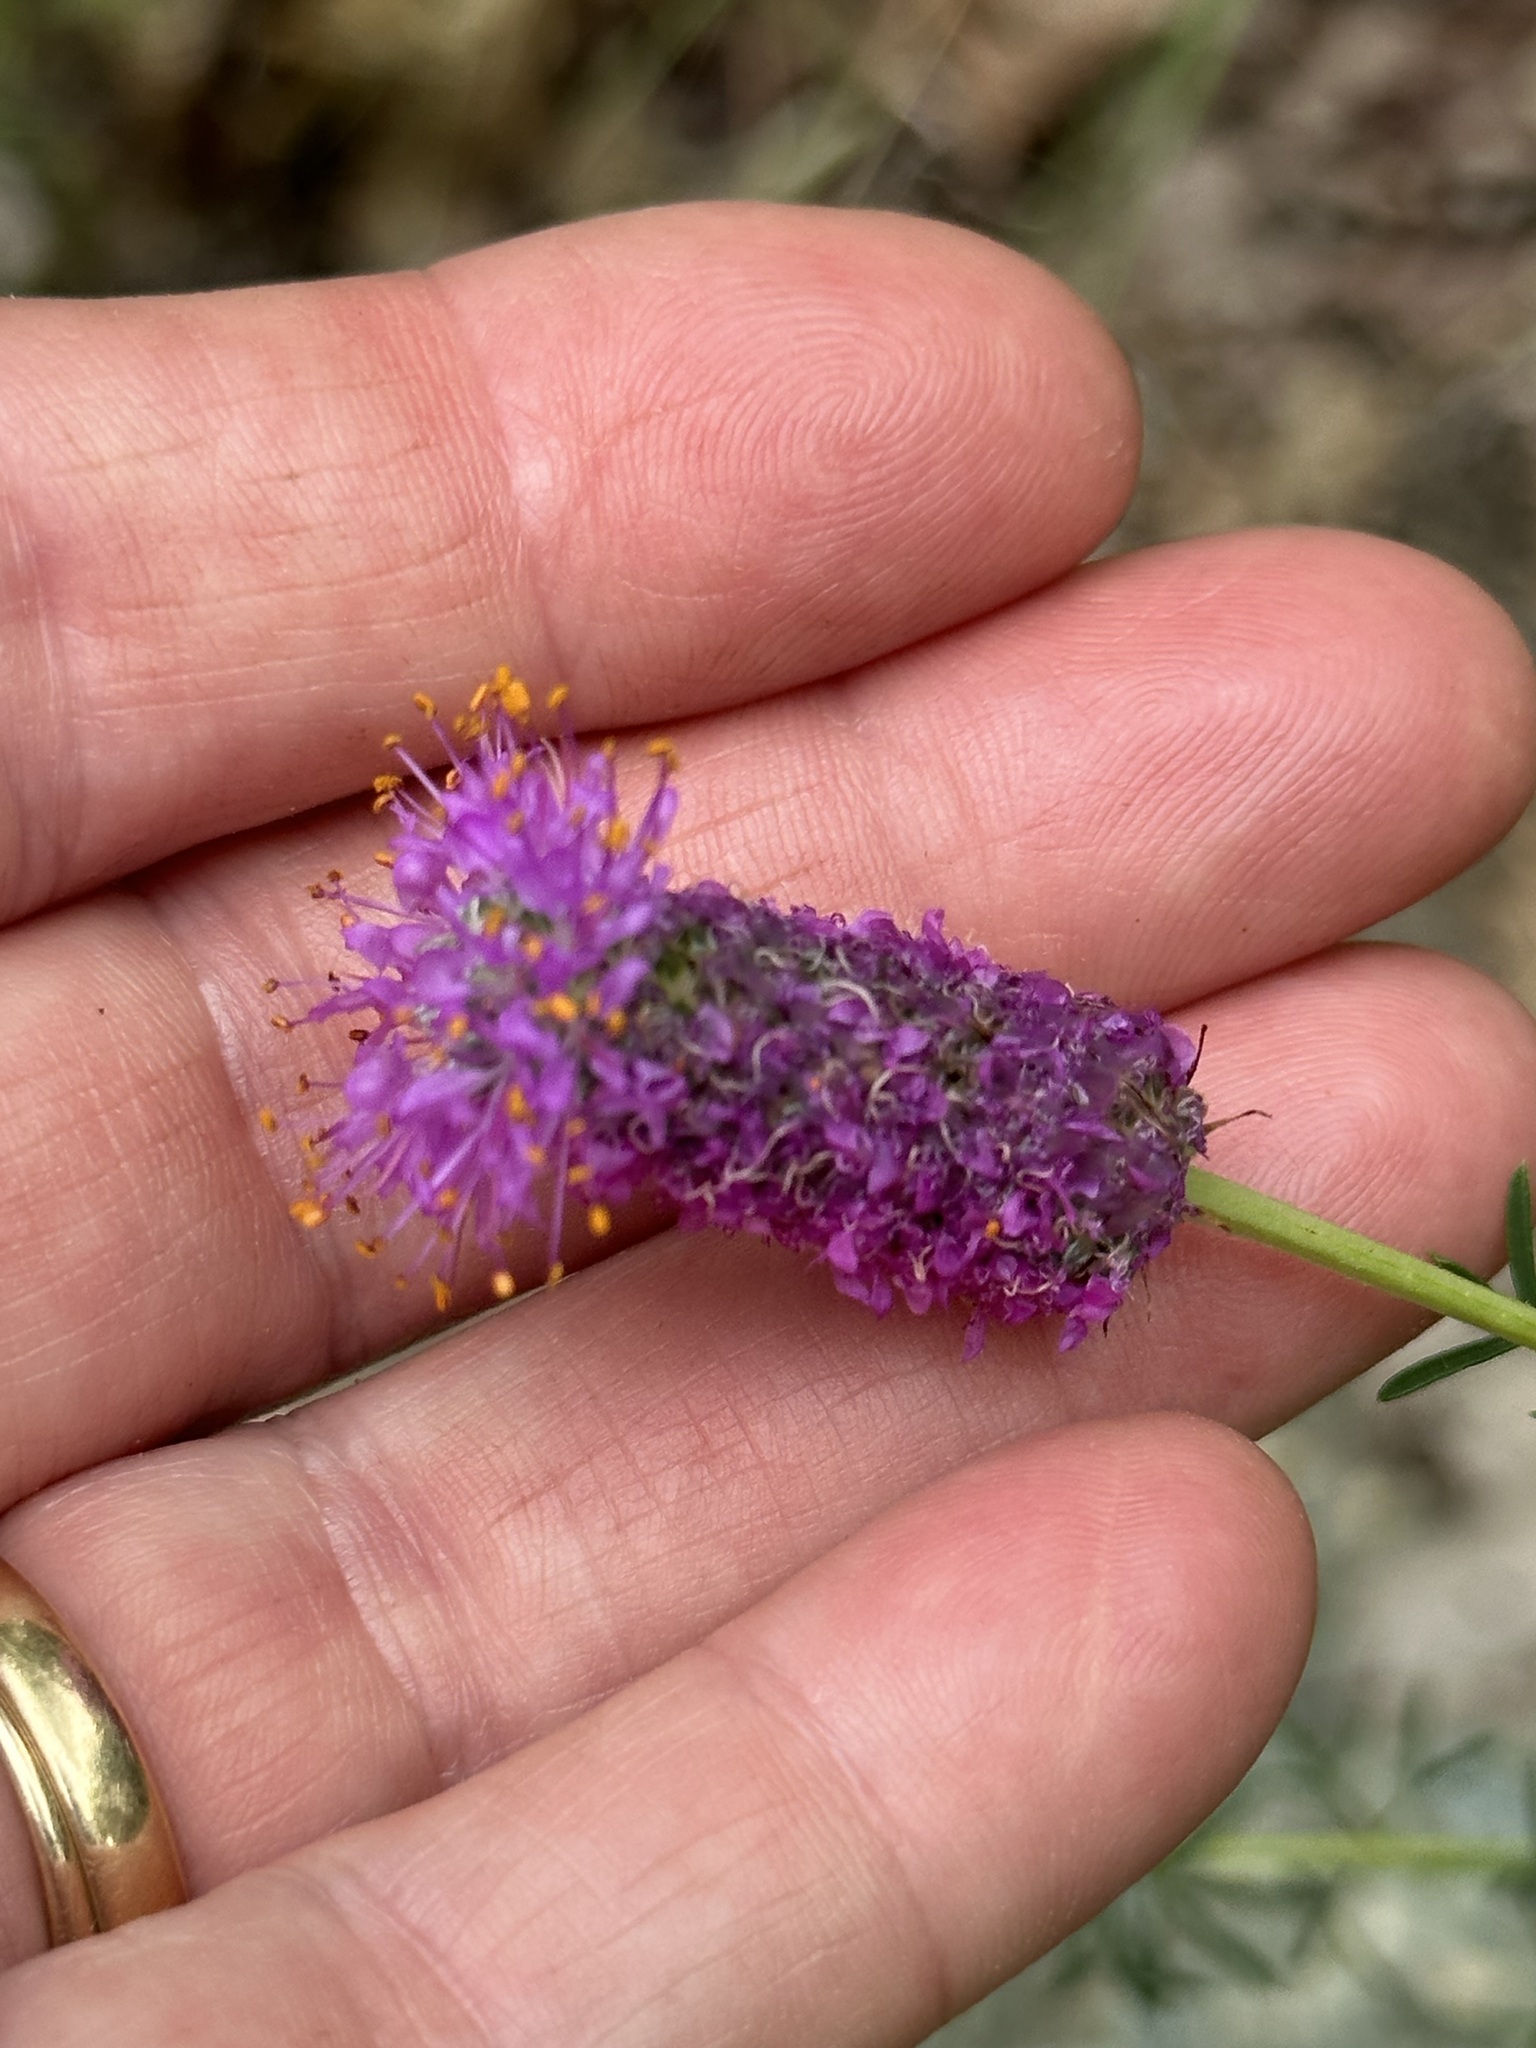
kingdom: Plantae
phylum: Tracheophyta
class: Magnoliopsida
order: Fabales
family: Fabaceae
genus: Dalea
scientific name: Dalea purpurea
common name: Purple prairie-clover
